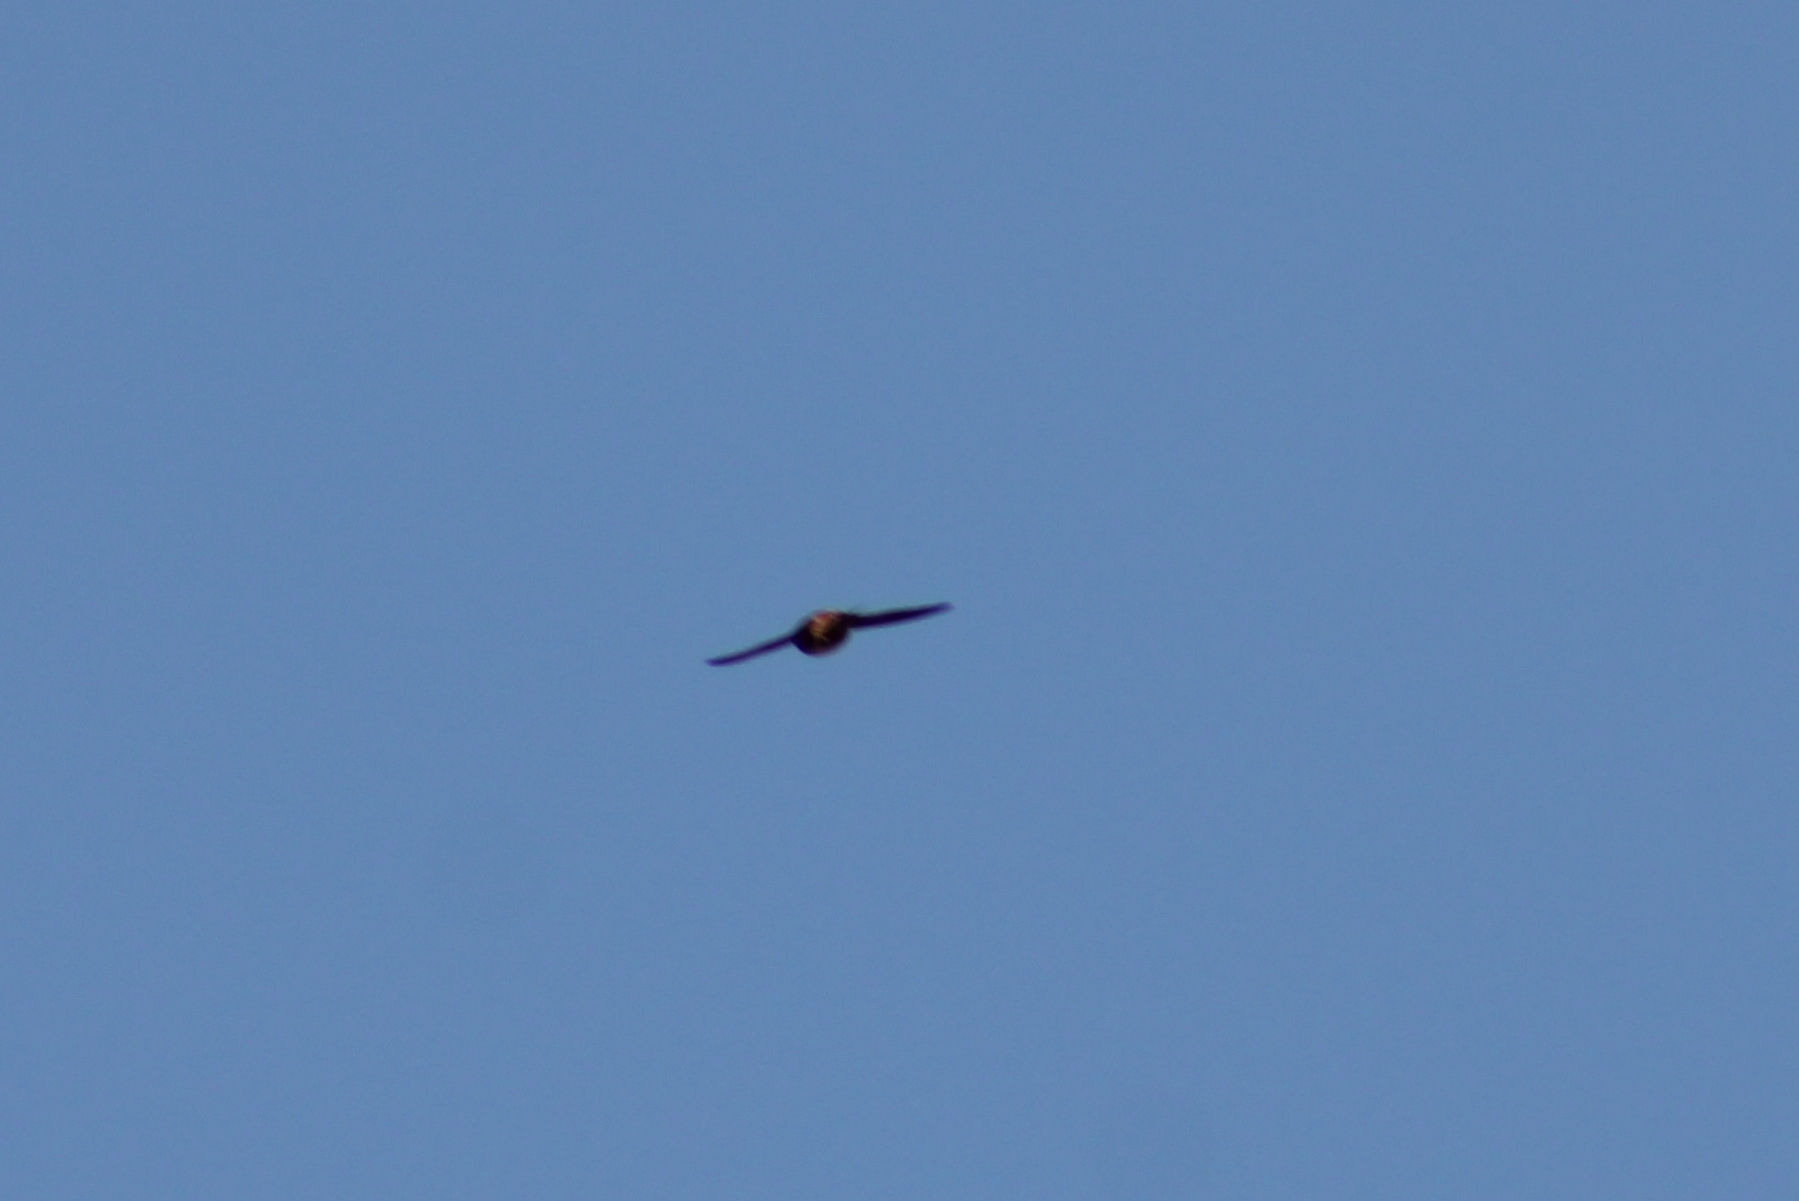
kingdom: Animalia
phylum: Chordata
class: Aves
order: Passeriformes
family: Hirundinidae
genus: Petrochelidon
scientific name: Petrochelidon pyrrhonota
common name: American cliff swallow
